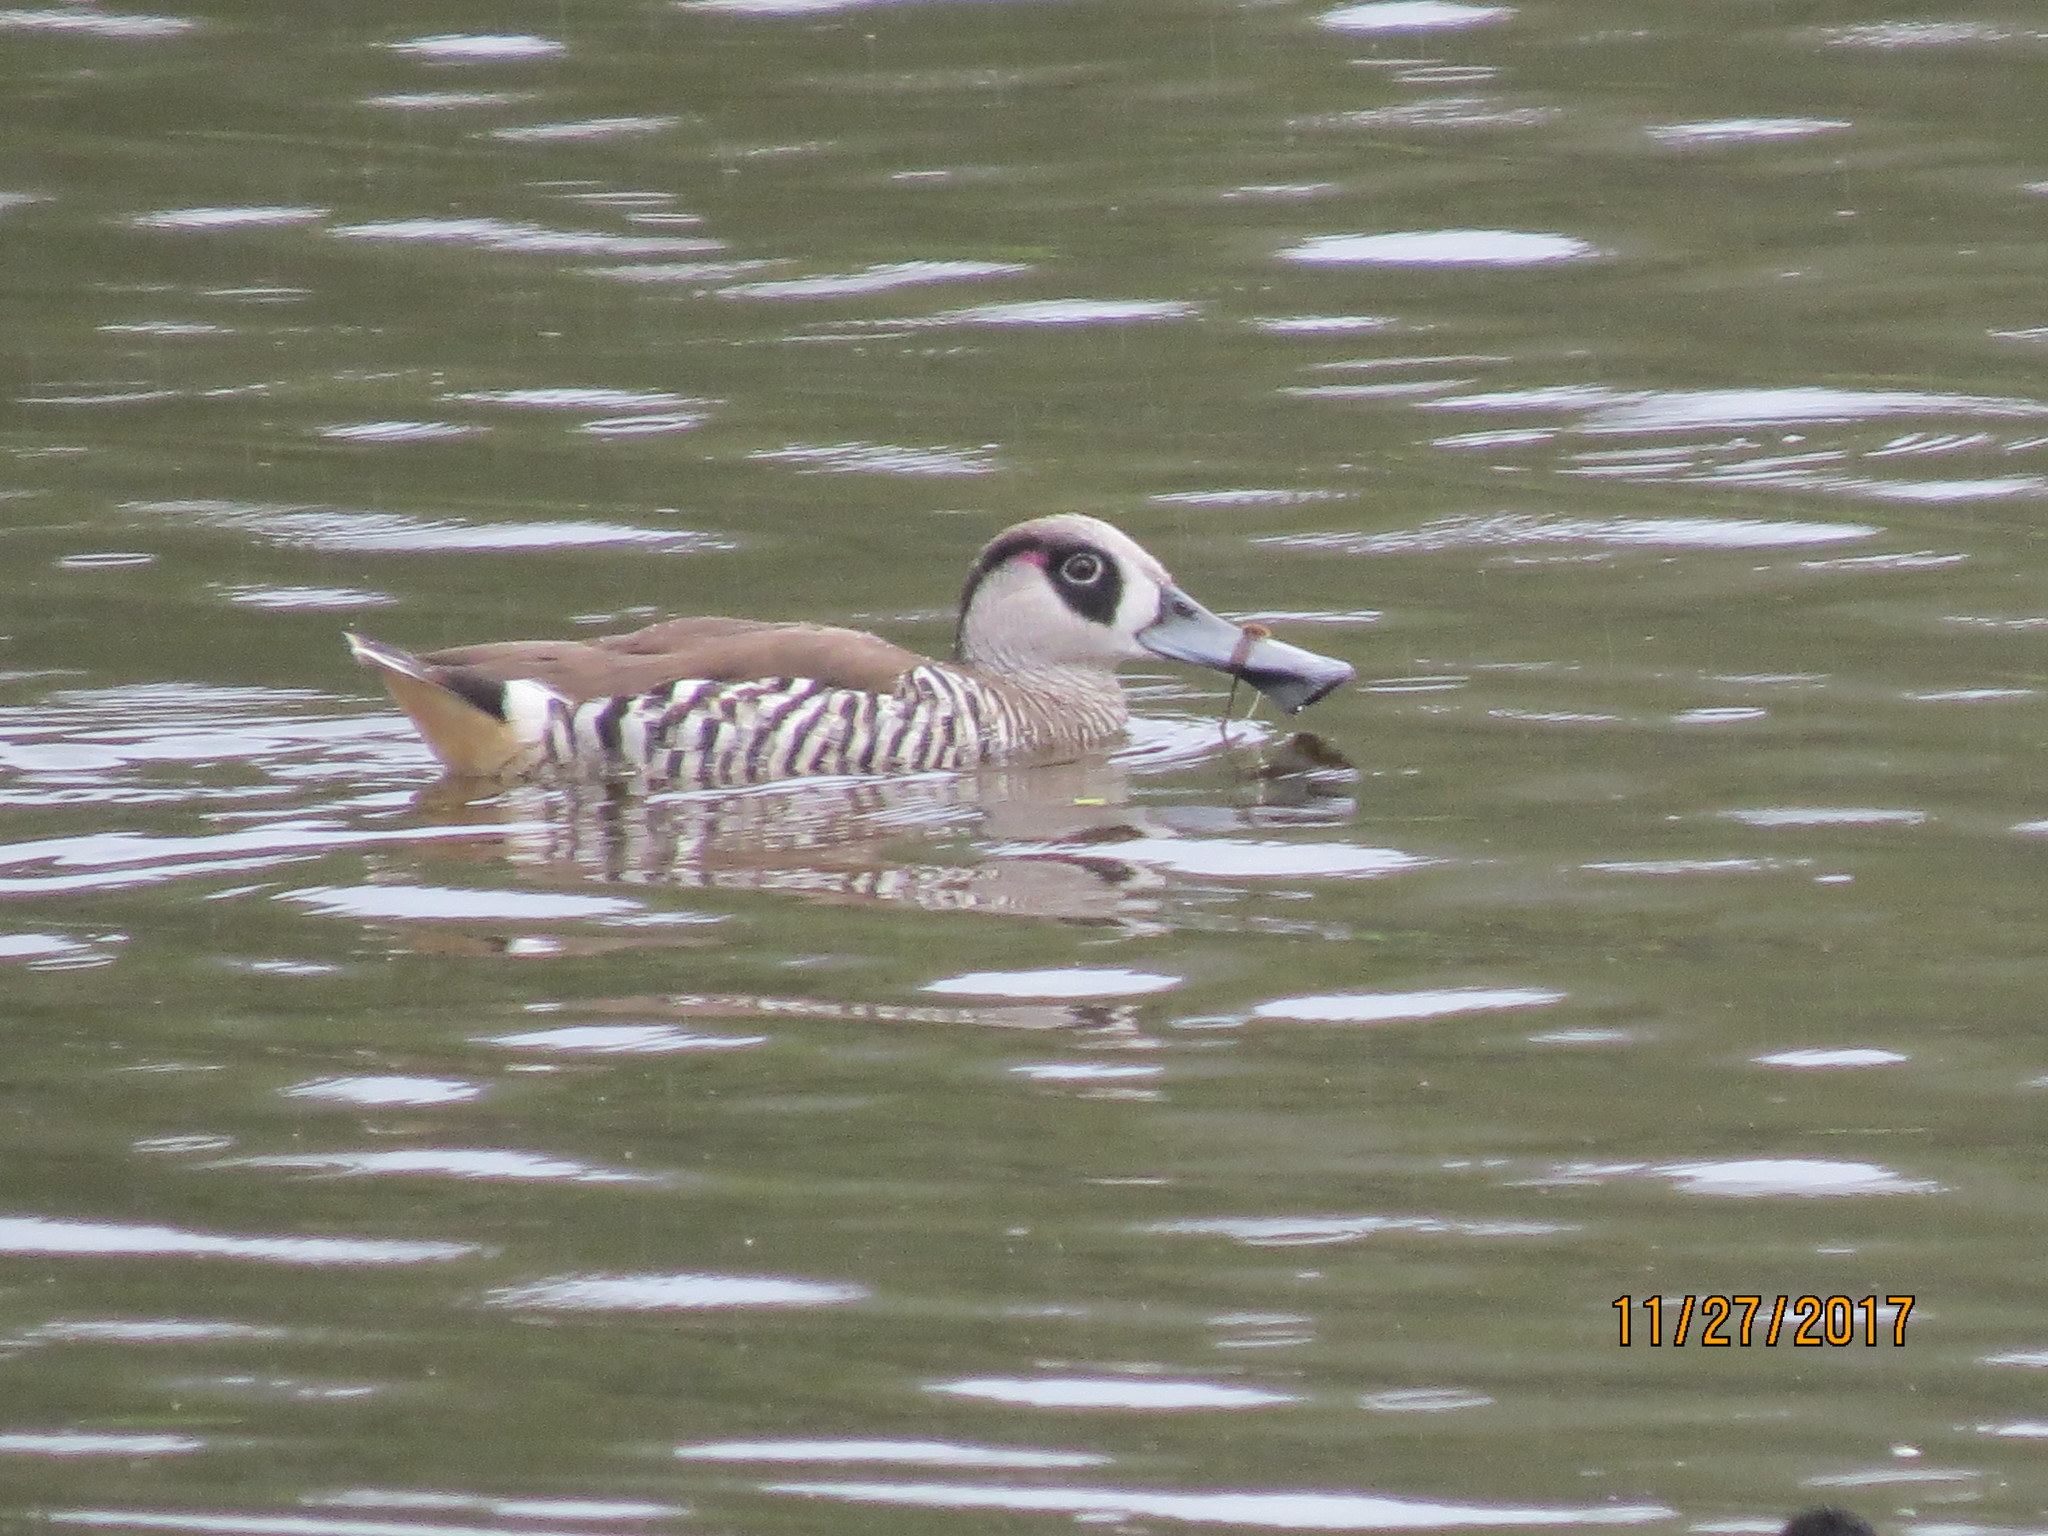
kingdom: Animalia
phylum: Chordata
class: Aves
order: Anseriformes
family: Anatidae
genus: Malacorhynchus
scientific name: Malacorhynchus membranaceus
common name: Pink-eared duck
